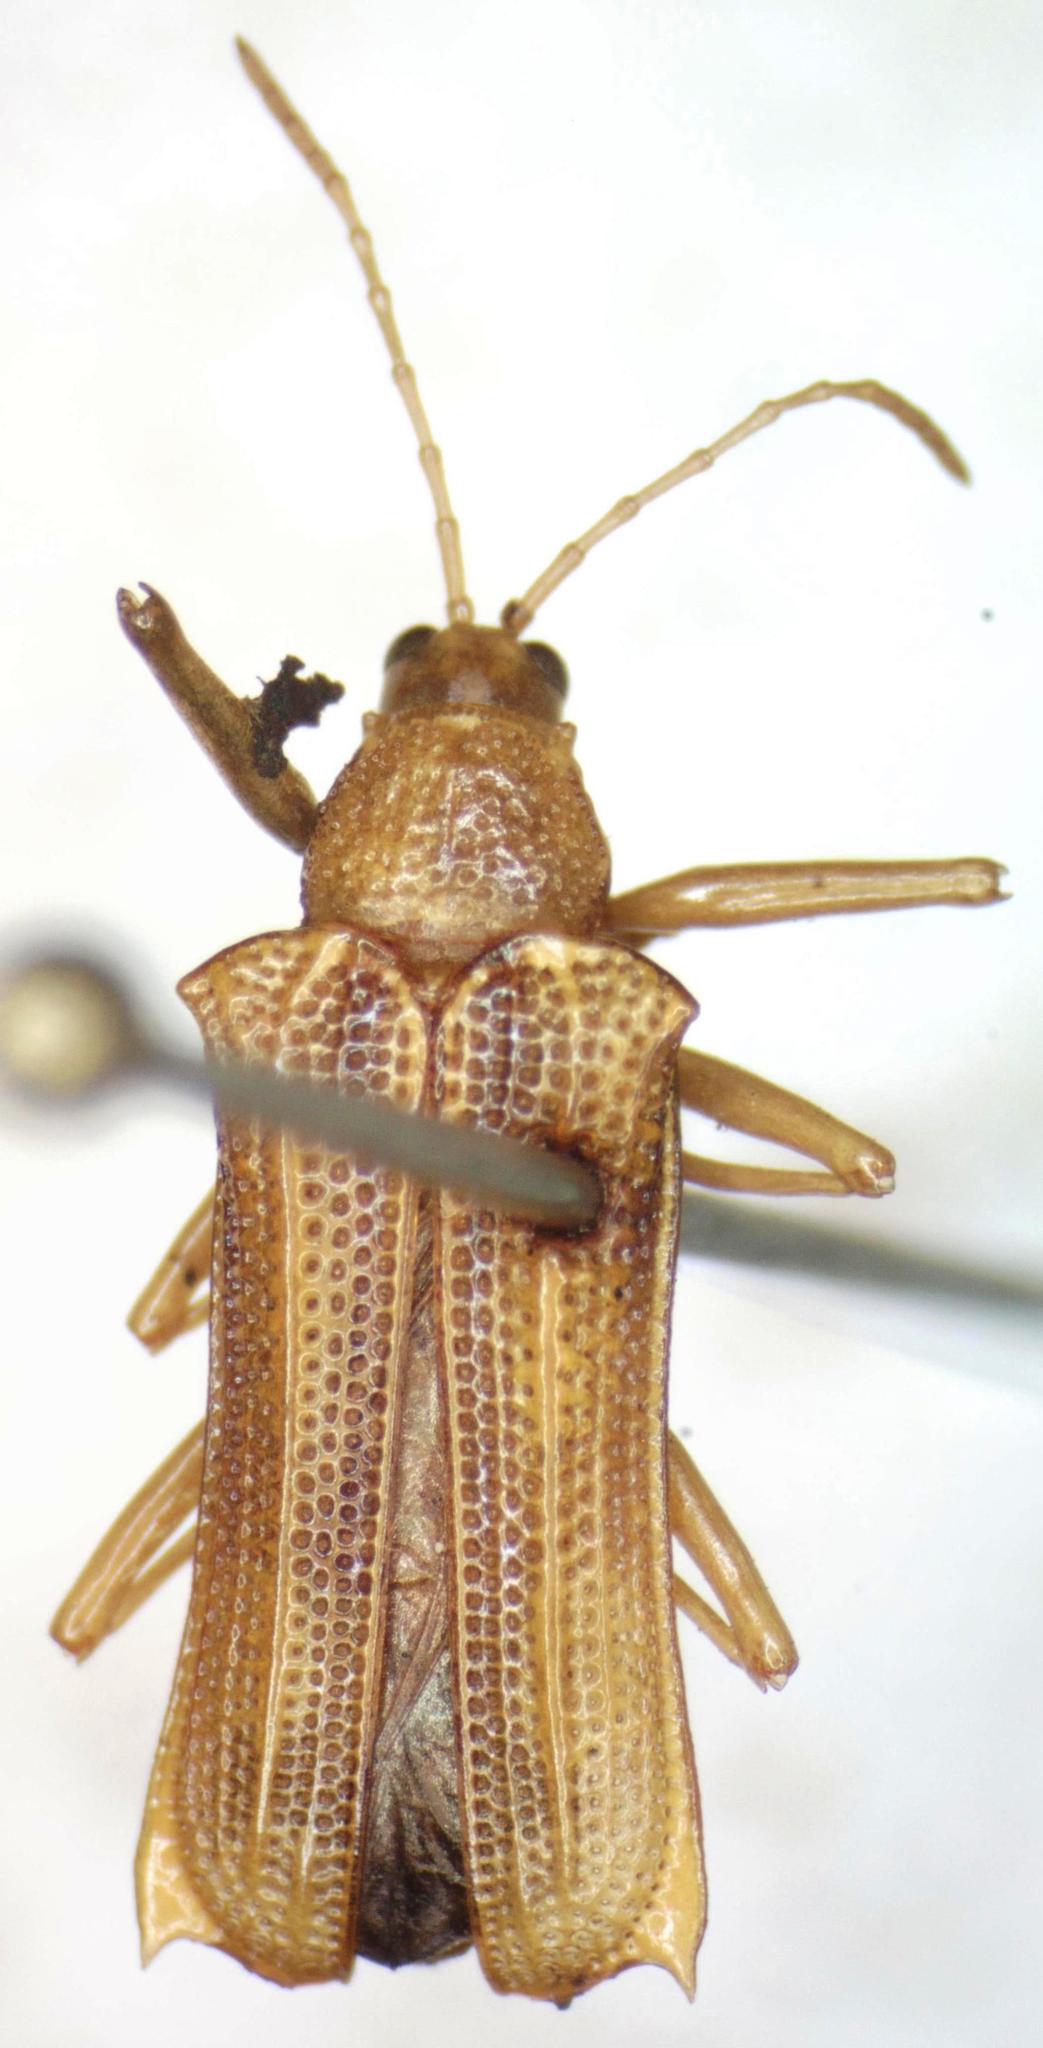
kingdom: Animalia
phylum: Arthropoda
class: Insecta
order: Coleoptera
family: Chrysomelidae
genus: Sceloenopla
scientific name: Sceloenopla obscurovittata
